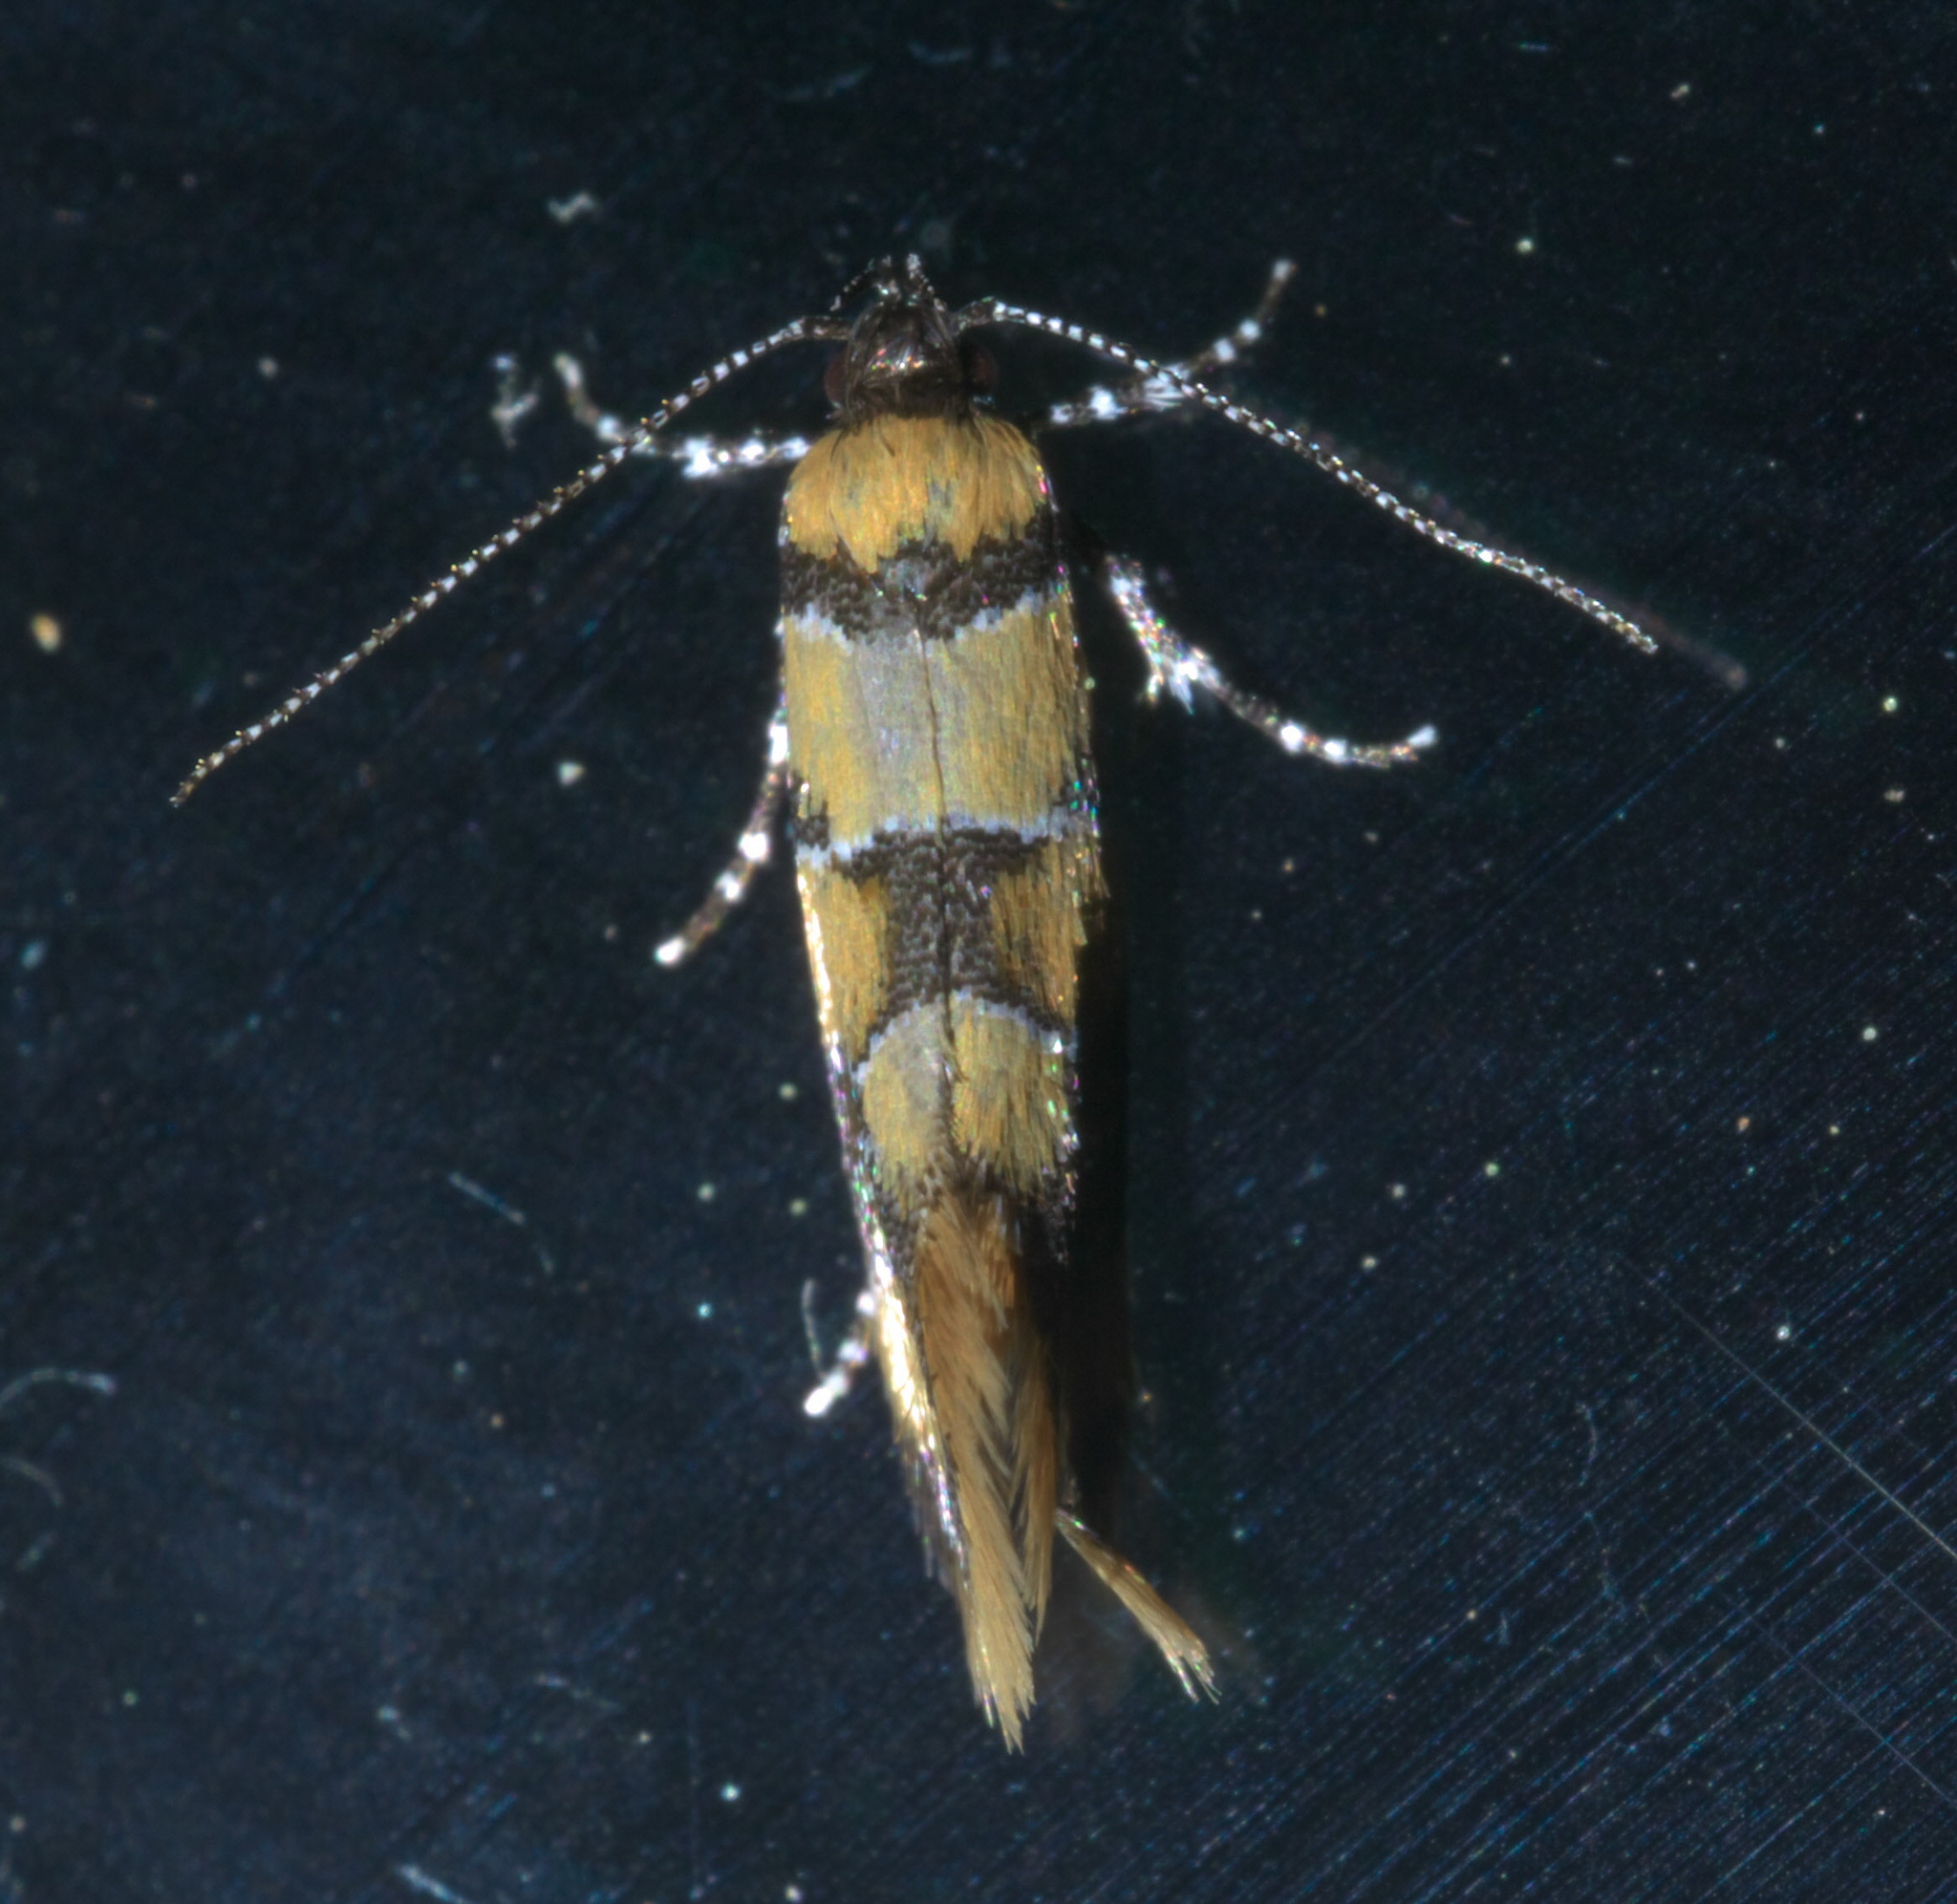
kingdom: Animalia
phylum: Arthropoda
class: Insecta
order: Lepidoptera
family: Oecophoridae
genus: Decantha
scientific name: Decantha borkhausenii
